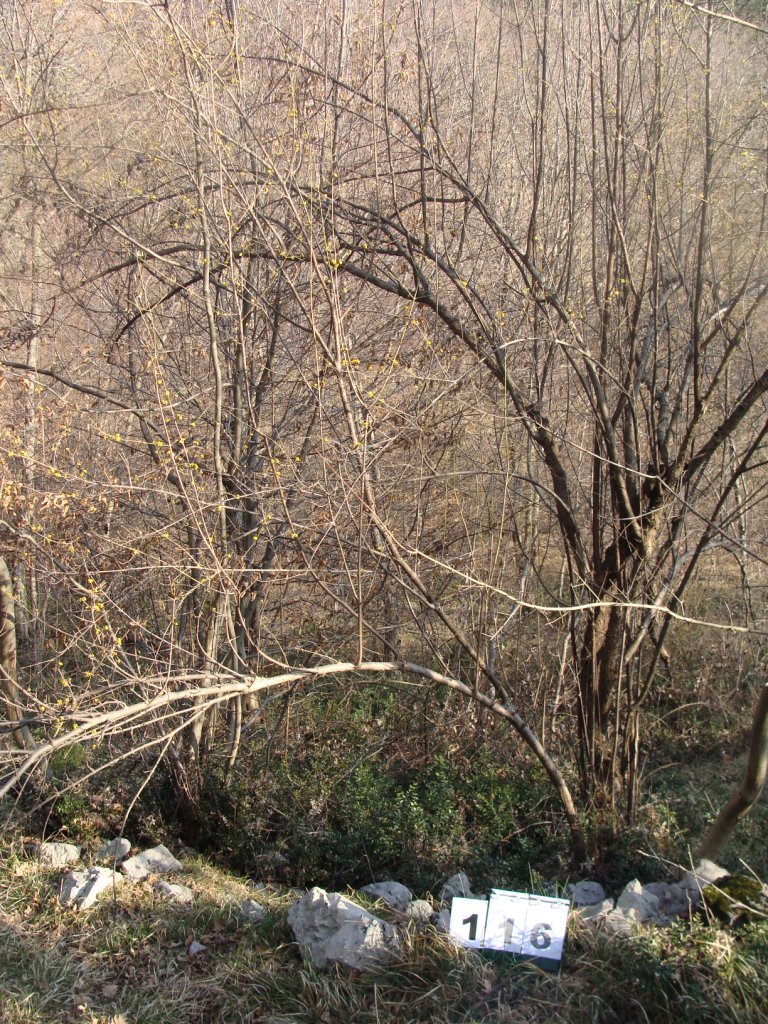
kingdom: Plantae
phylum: Tracheophyta
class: Magnoliopsida
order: Cornales
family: Cornaceae
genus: Cornus
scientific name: Cornus mas
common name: Cornelian-cherry
